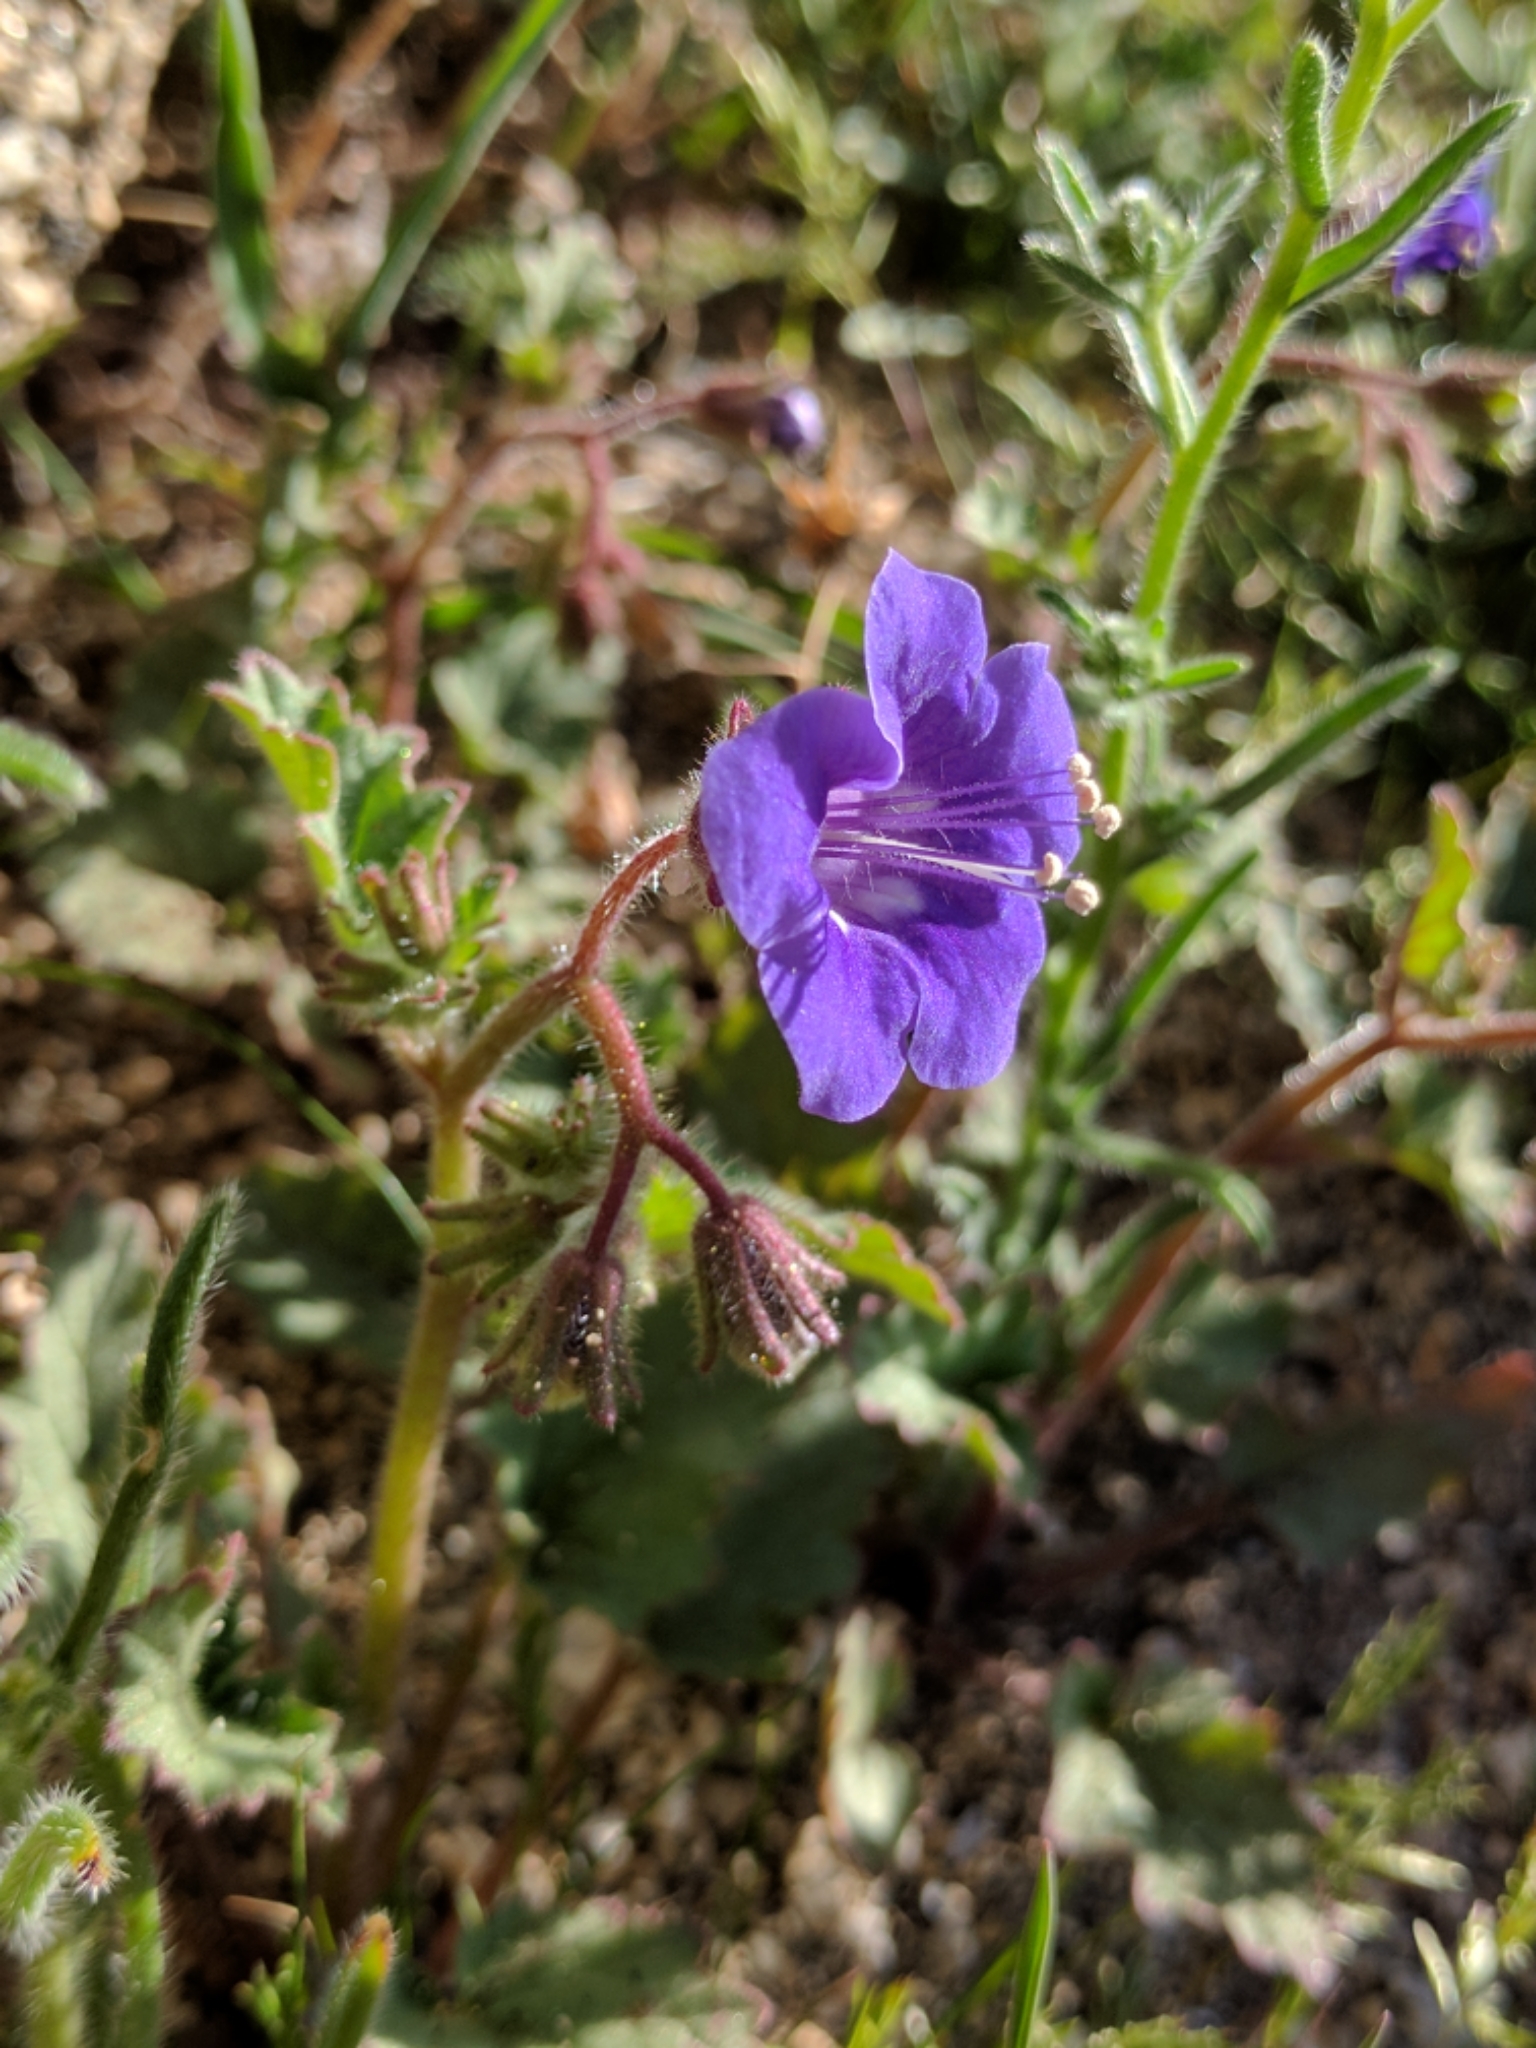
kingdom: Plantae
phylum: Tracheophyta
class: Magnoliopsida
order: Boraginales
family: Hydrophyllaceae
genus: Phacelia
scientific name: Phacelia minor
